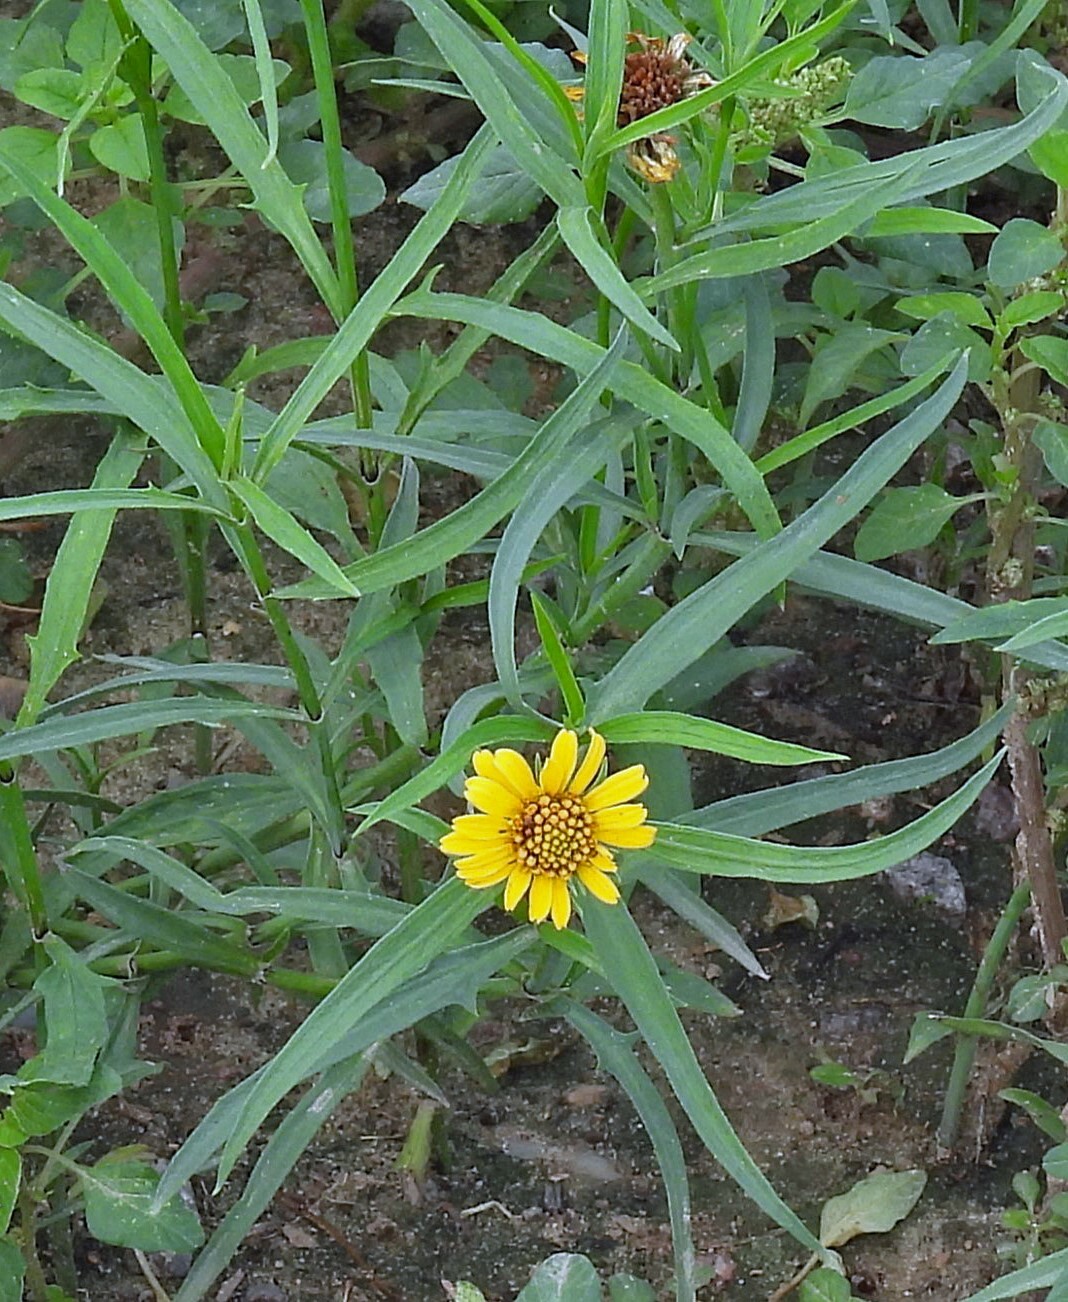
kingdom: Plantae
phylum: Tracheophyta
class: Magnoliopsida
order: Asterales
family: Asteraceae
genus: Pascalia
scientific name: Pascalia glauca
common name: Beach creeping oxeye
